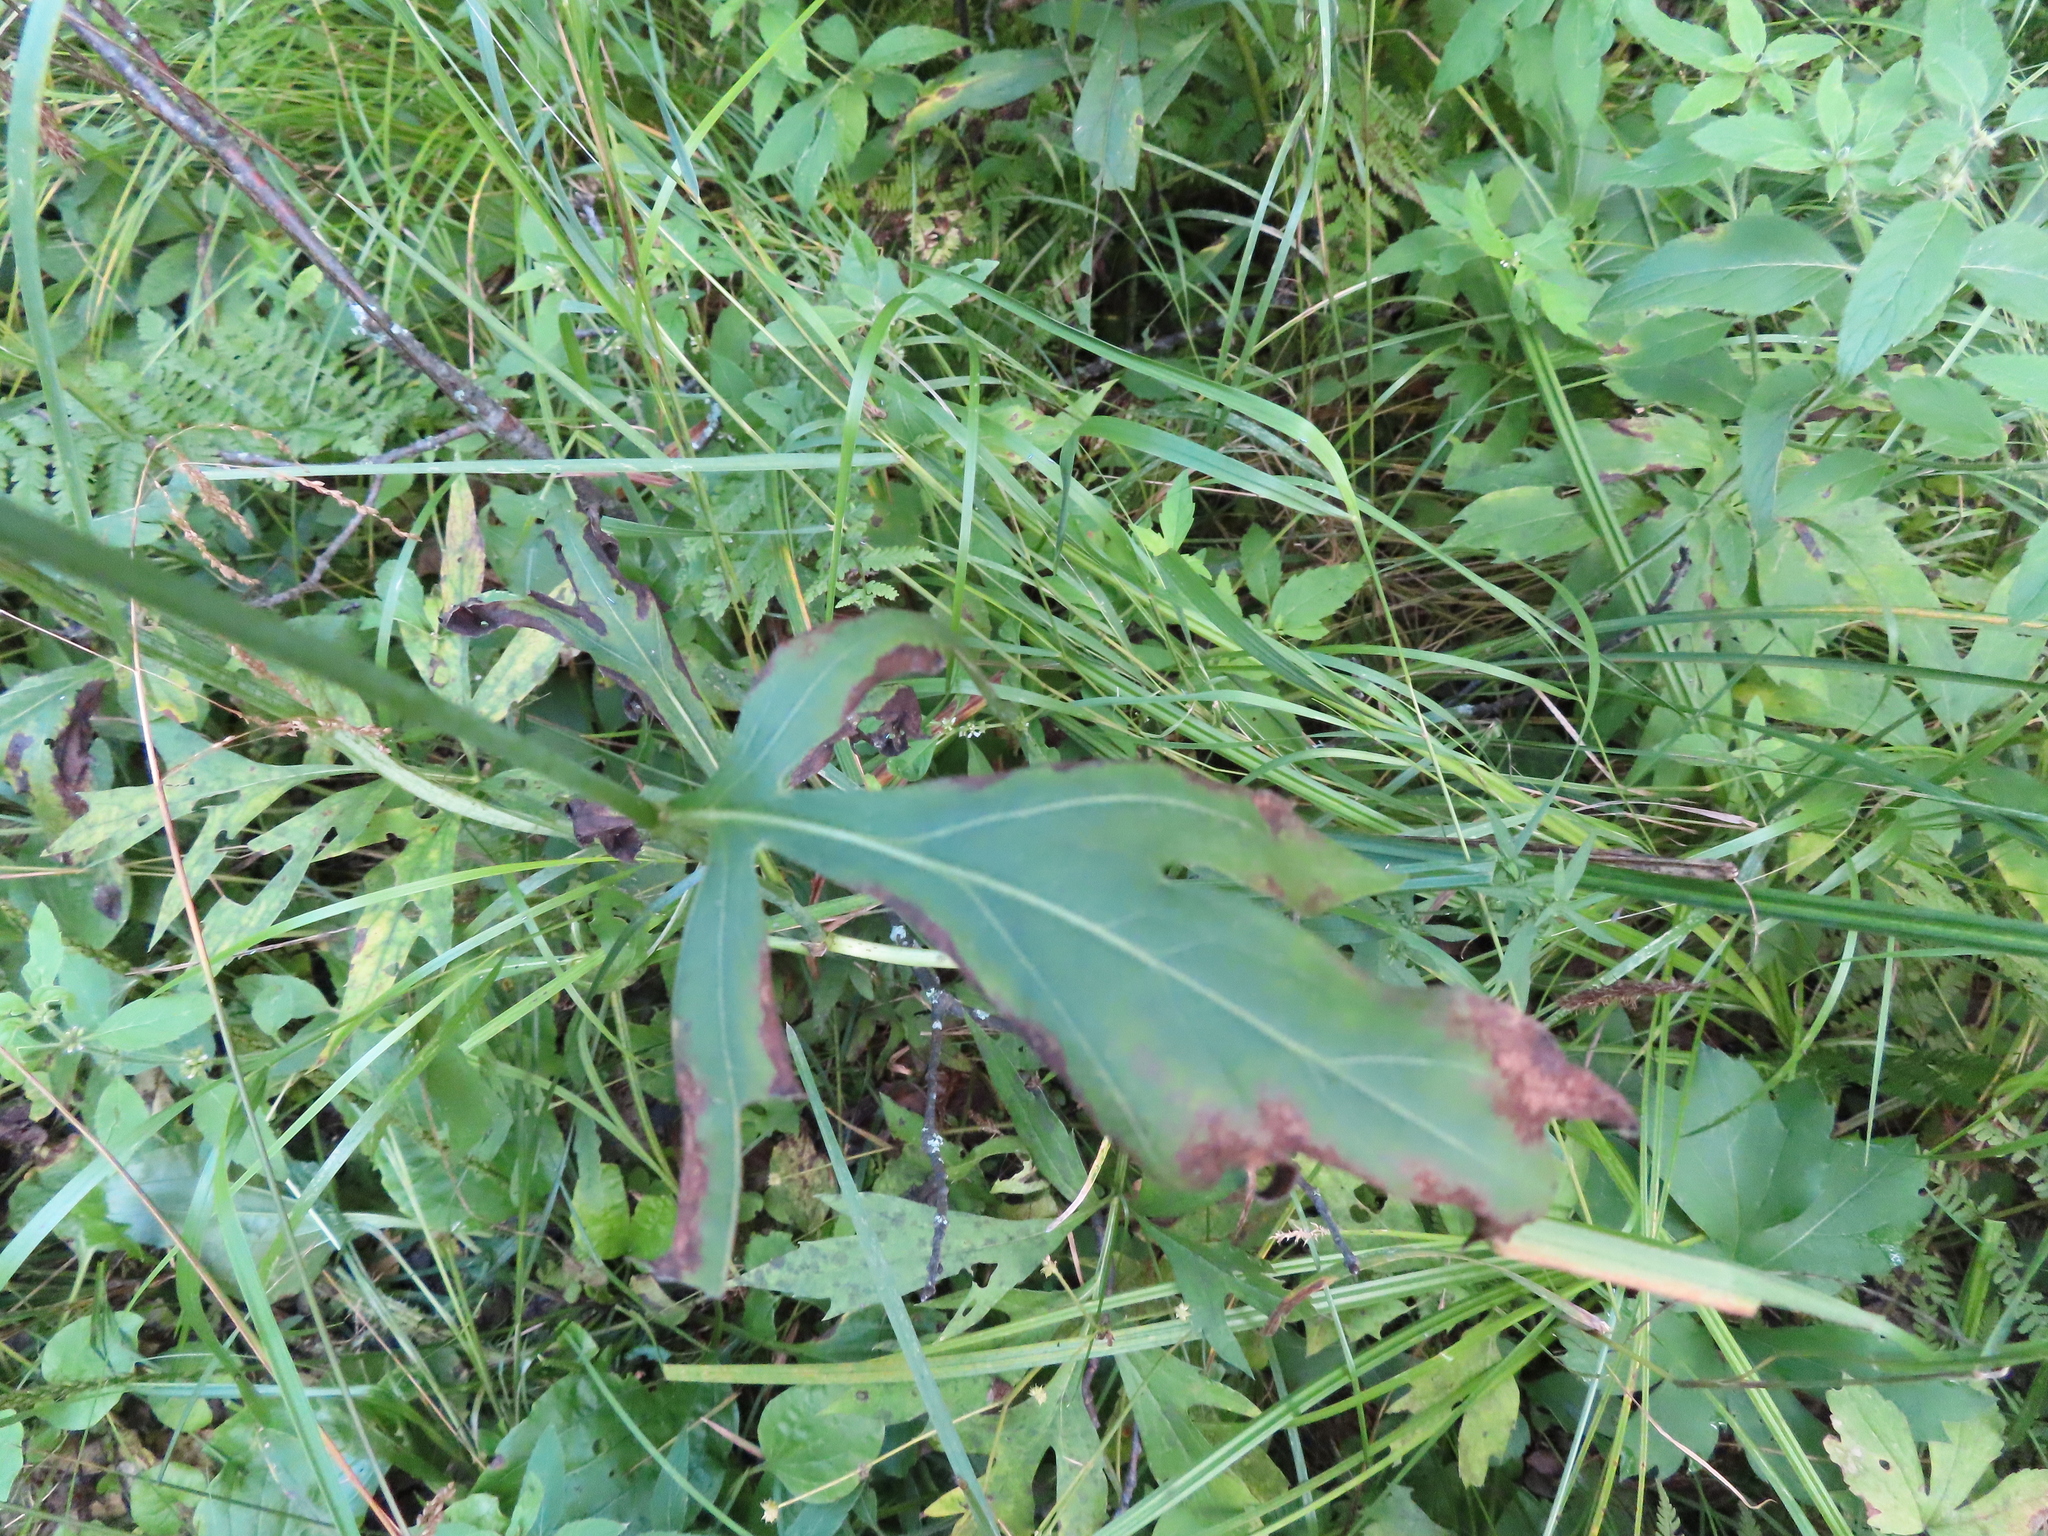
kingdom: Plantae
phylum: Tracheophyta
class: Magnoliopsida
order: Asterales
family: Asteraceae
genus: Rudbeckia
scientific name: Rudbeckia laciniata
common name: Coneflower
